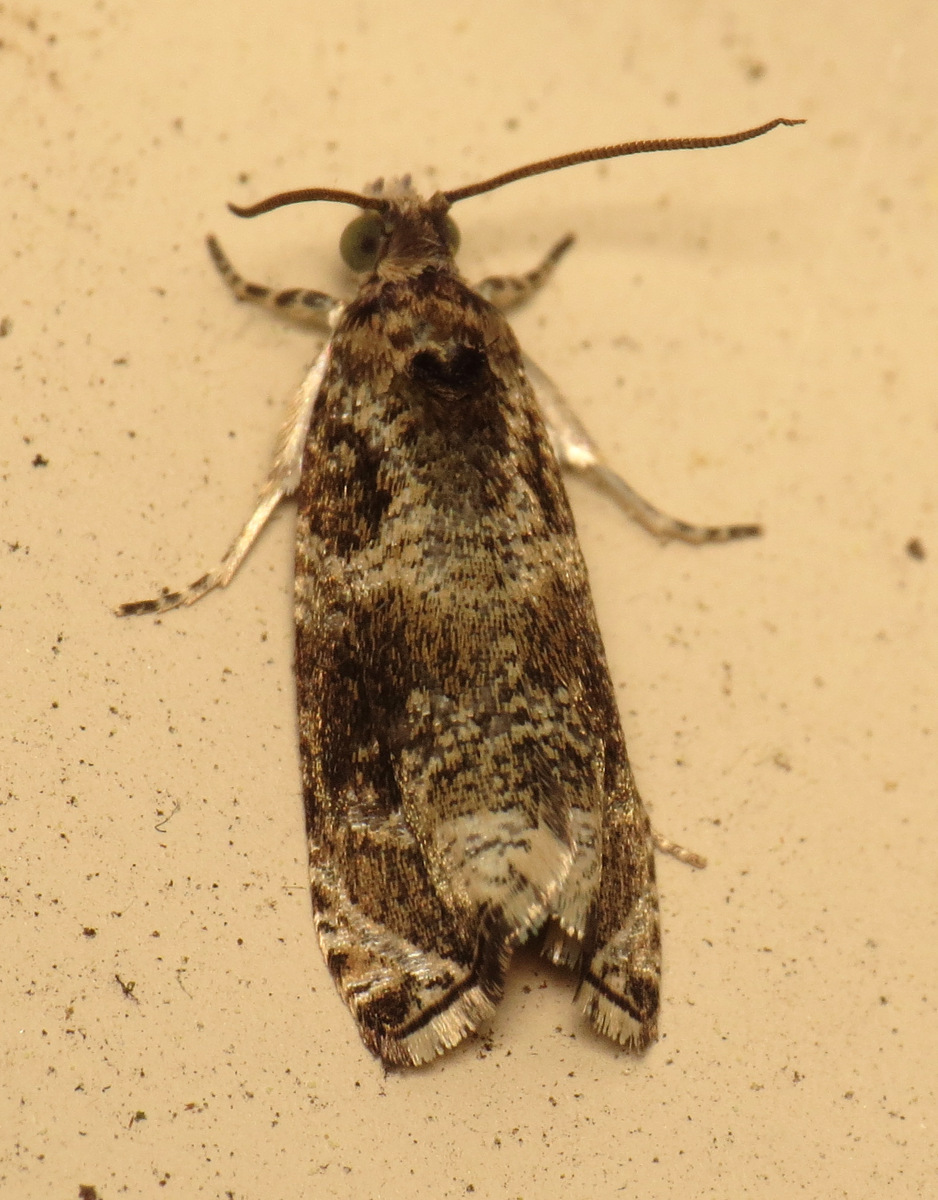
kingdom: Animalia
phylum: Arthropoda
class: Insecta
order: Lepidoptera
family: Tortricidae
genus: Olethreutes
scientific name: Olethreutes appendiceum
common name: Serviceberry leafroller
